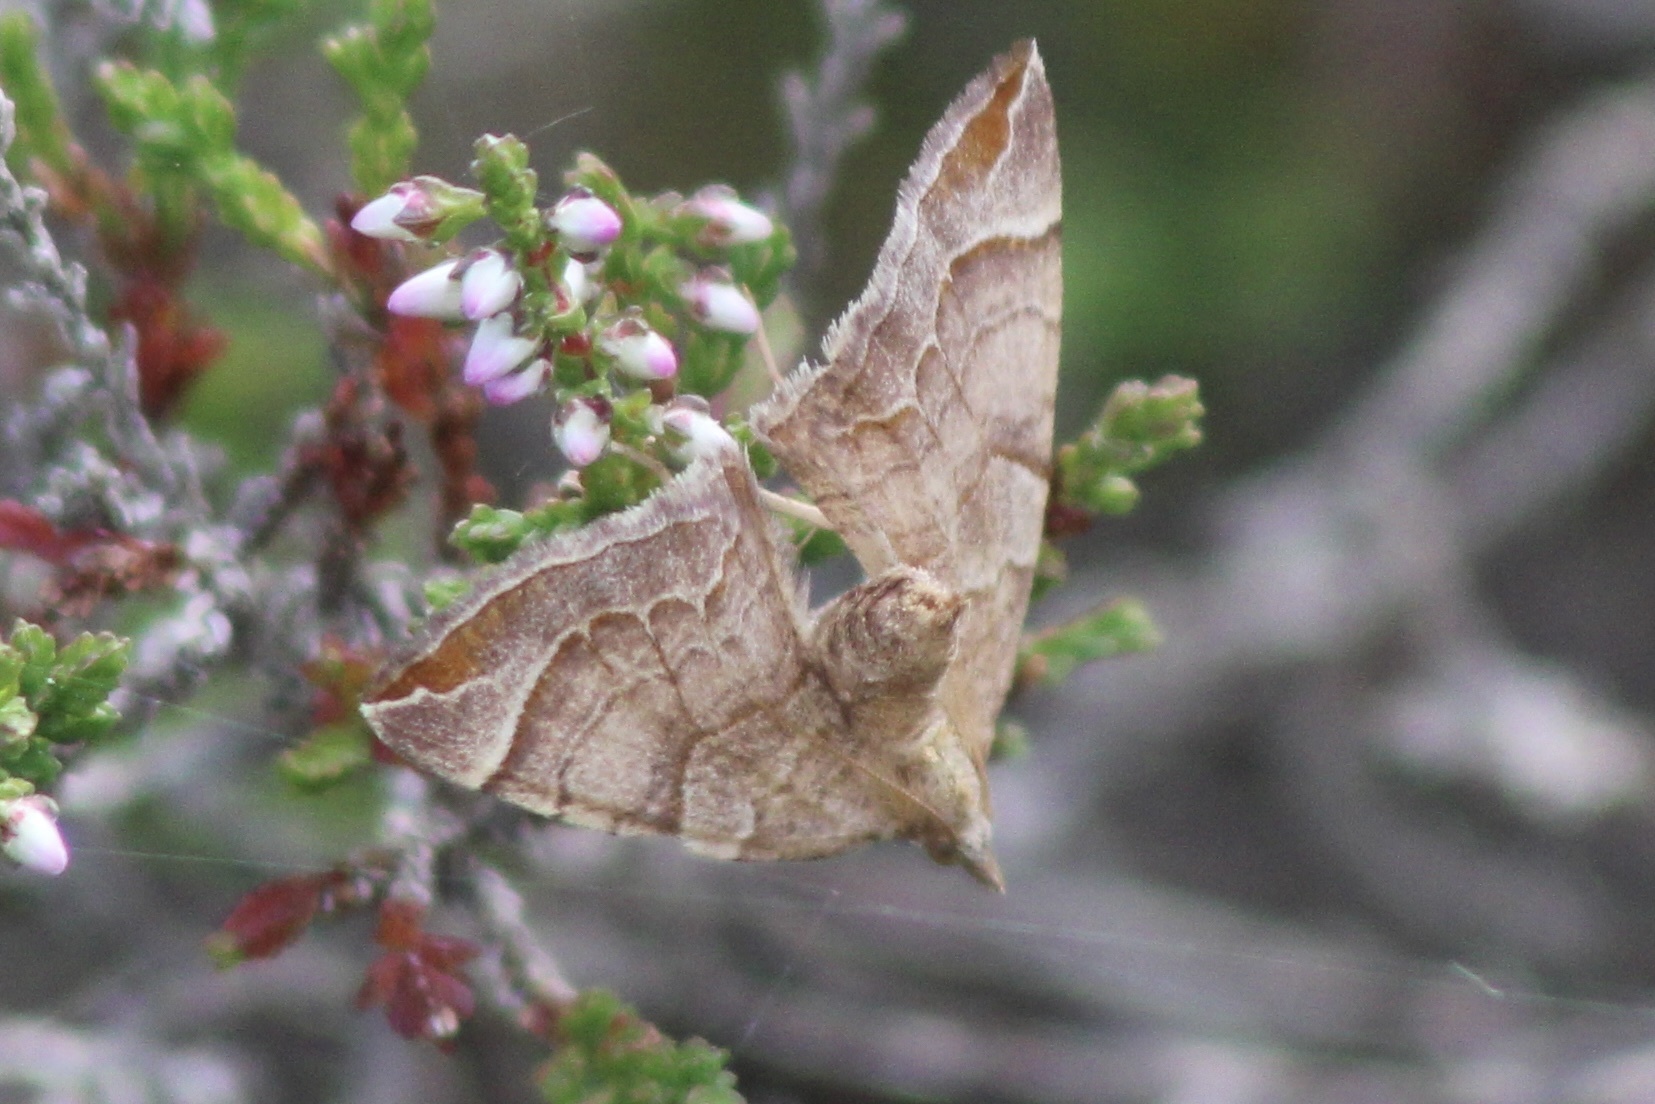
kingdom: Animalia
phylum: Arthropoda
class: Insecta
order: Lepidoptera
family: Geometridae
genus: Eulithis
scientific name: Eulithis testata
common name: Chevron
